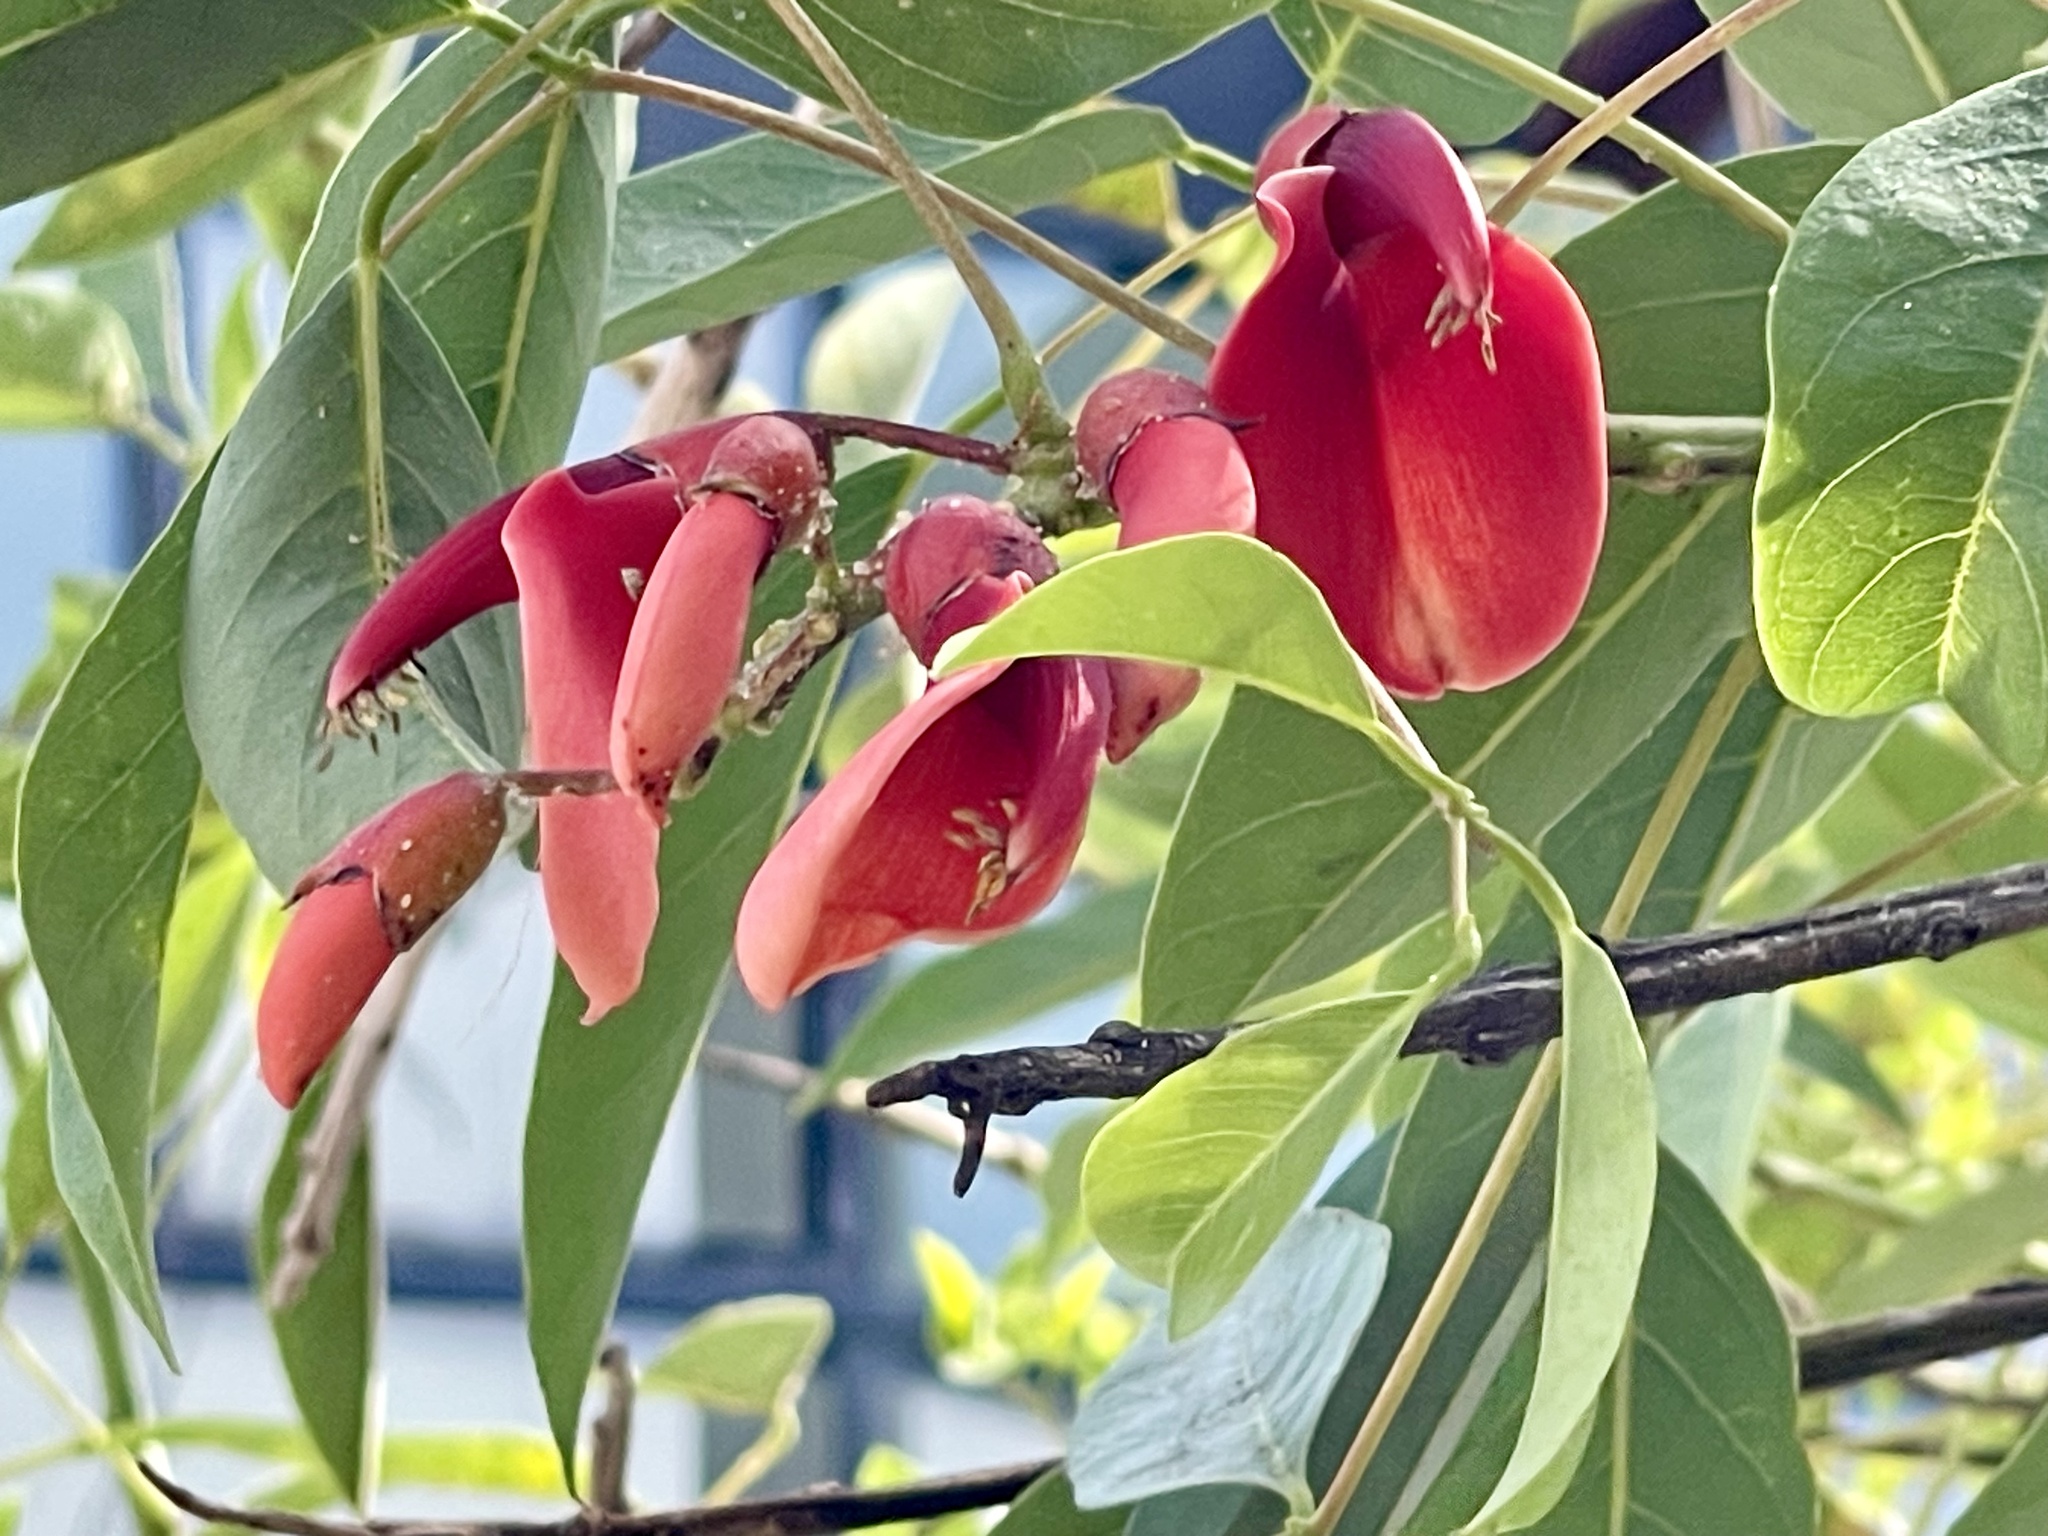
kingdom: Plantae
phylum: Tracheophyta
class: Magnoliopsida
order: Fabales
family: Fabaceae
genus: Erythrina
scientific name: Erythrina crista-galli
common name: Cockspur coral tree
